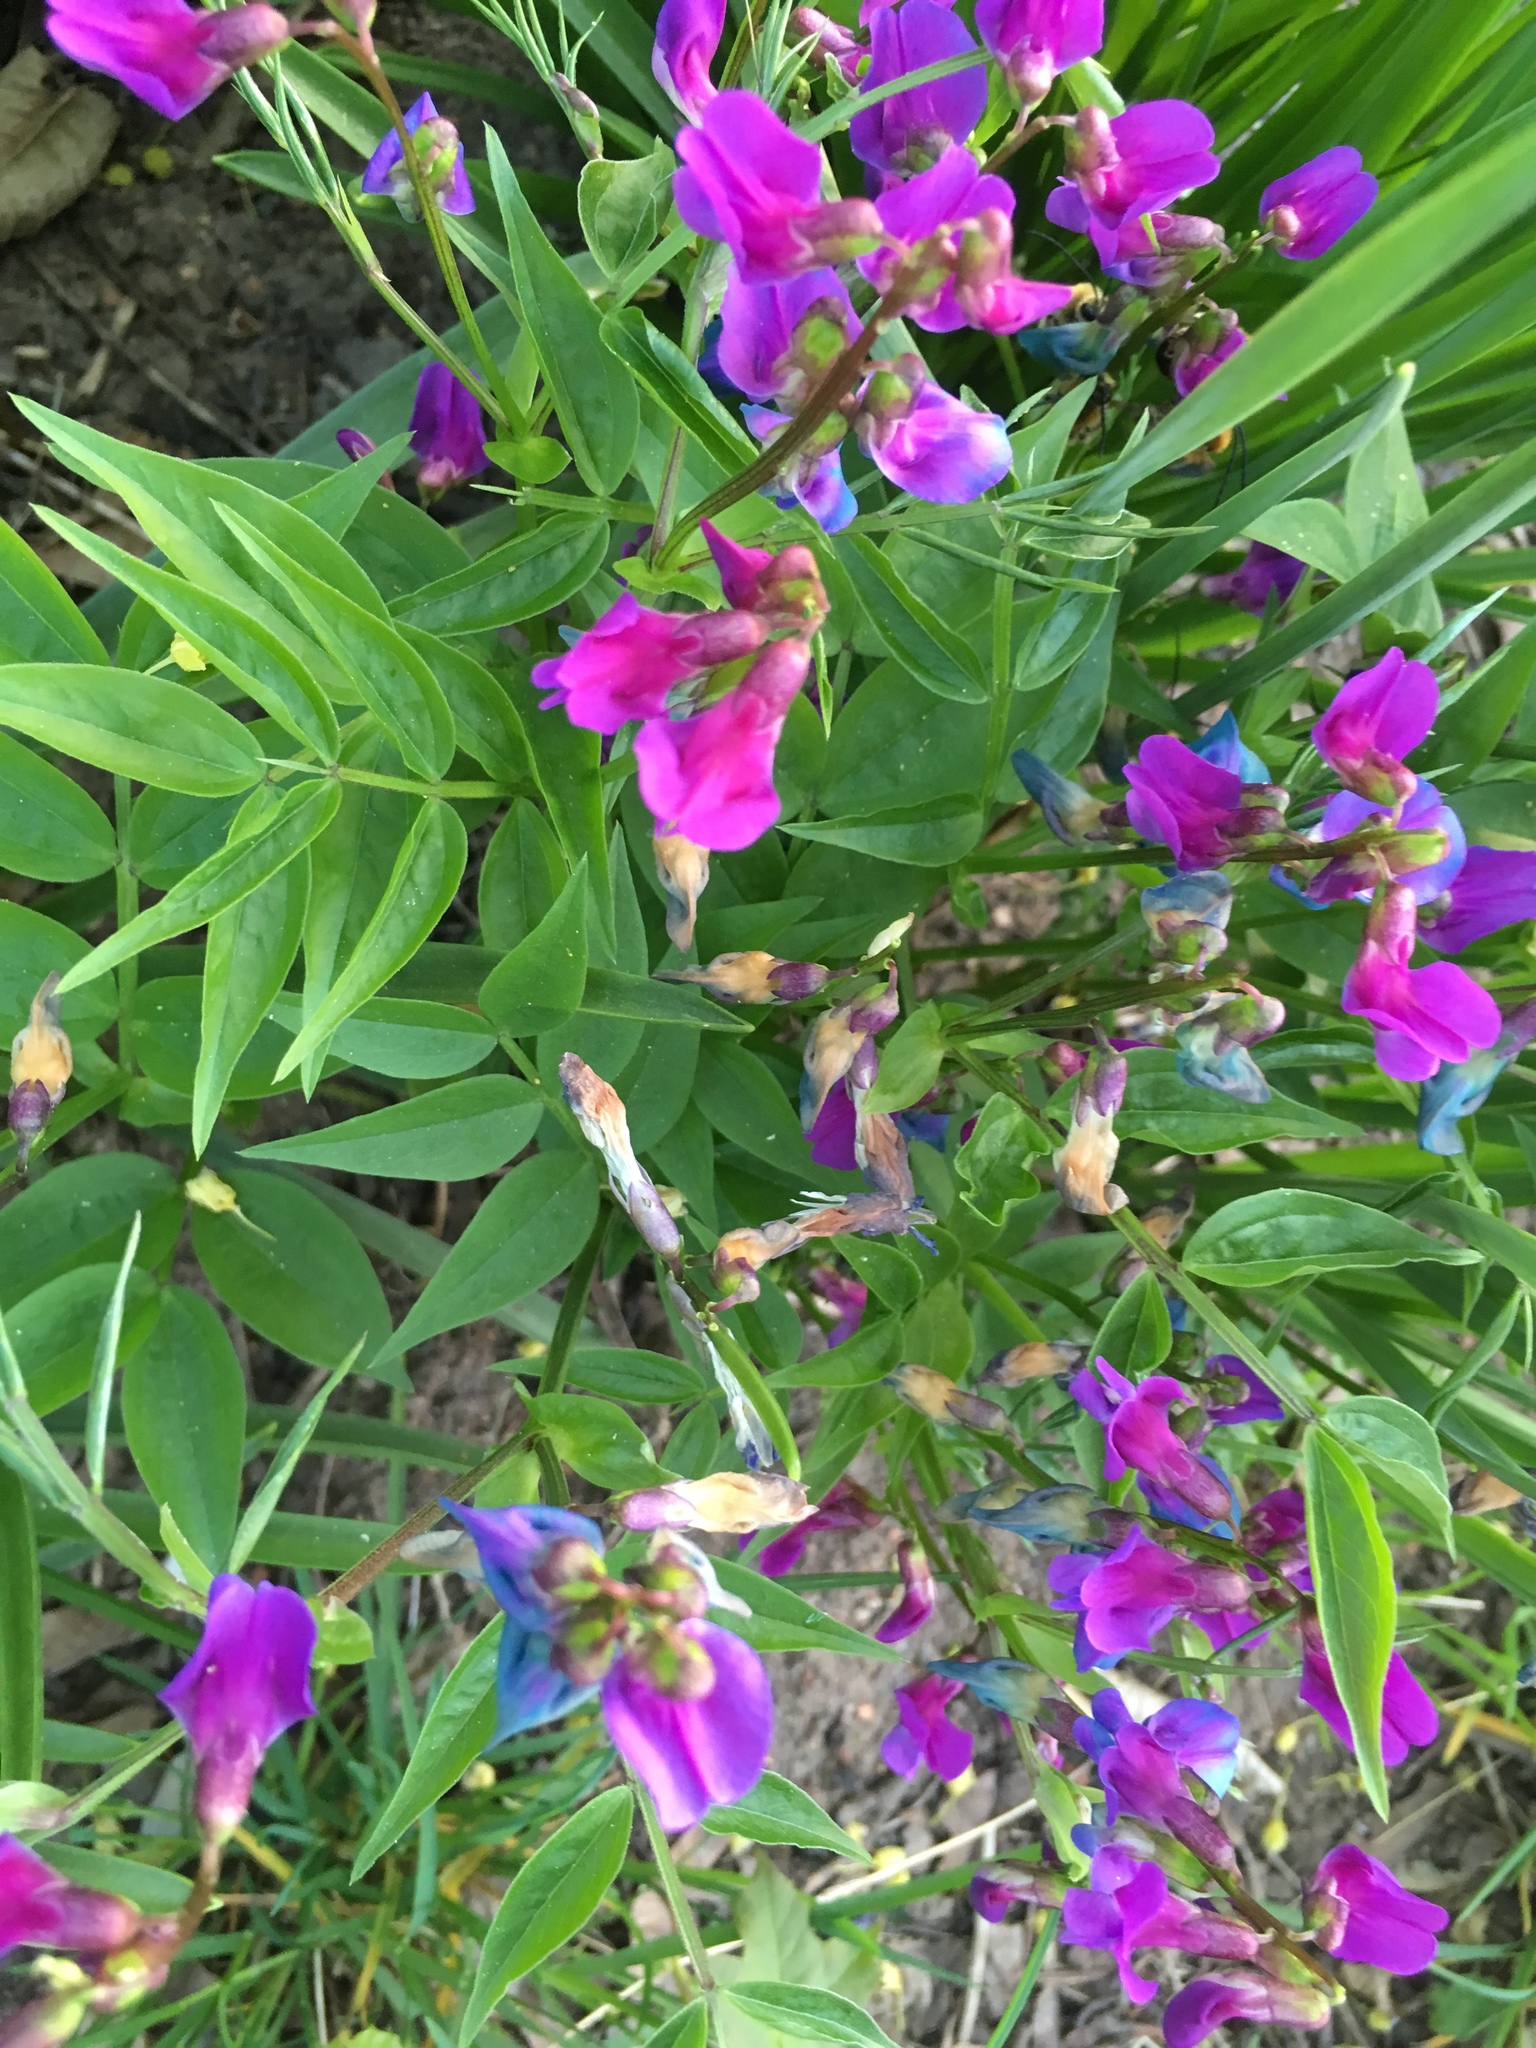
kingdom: Plantae
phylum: Tracheophyta
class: Magnoliopsida
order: Fabales
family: Fabaceae
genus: Lathyrus
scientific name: Lathyrus vernus
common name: Spring pea
